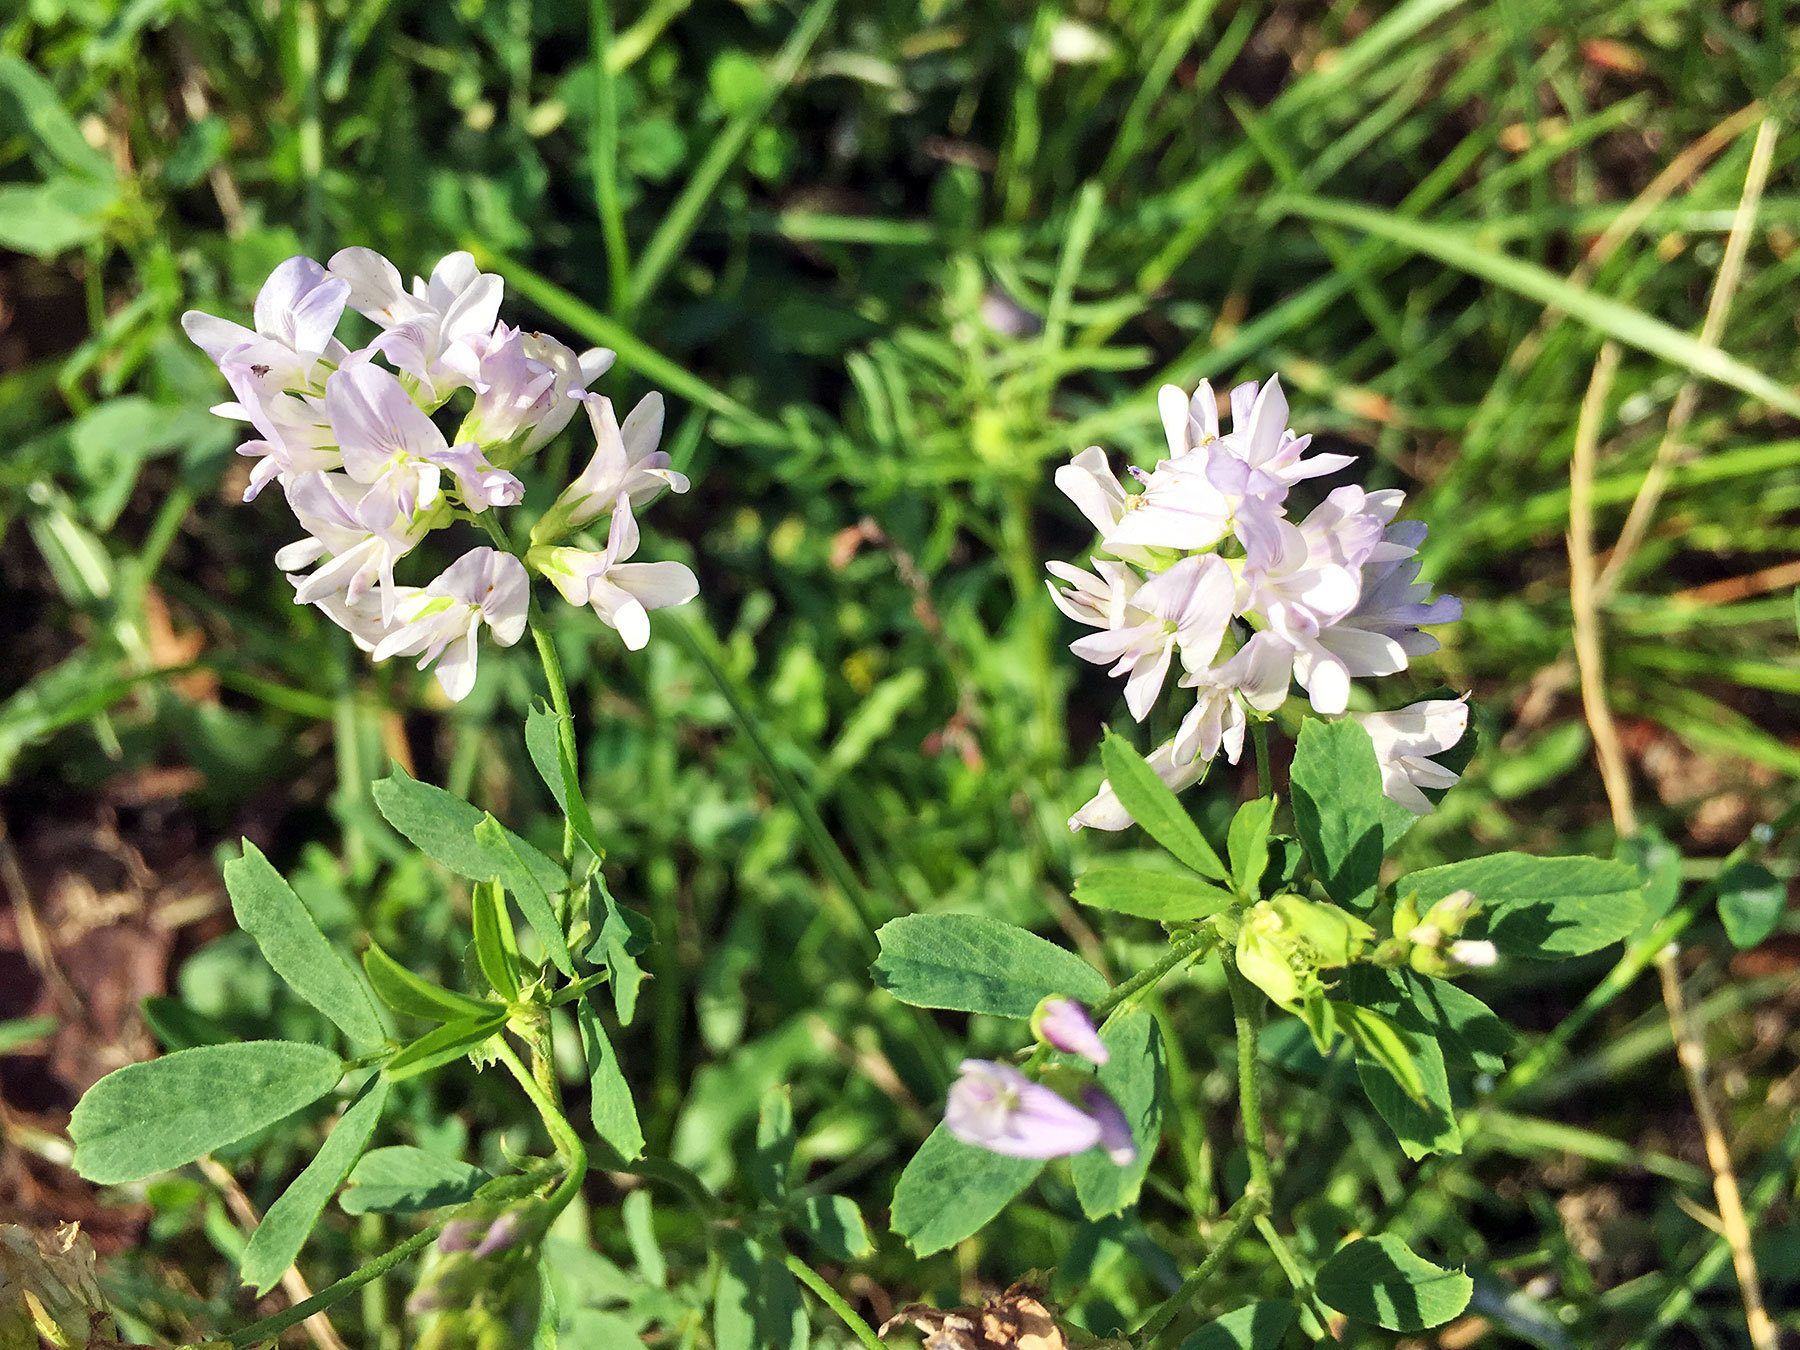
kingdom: Plantae
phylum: Tracheophyta
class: Magnoliopsida
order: Fabales
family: Fabaceae
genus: Medicago
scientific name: Medicago varia
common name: Sand lucerne
